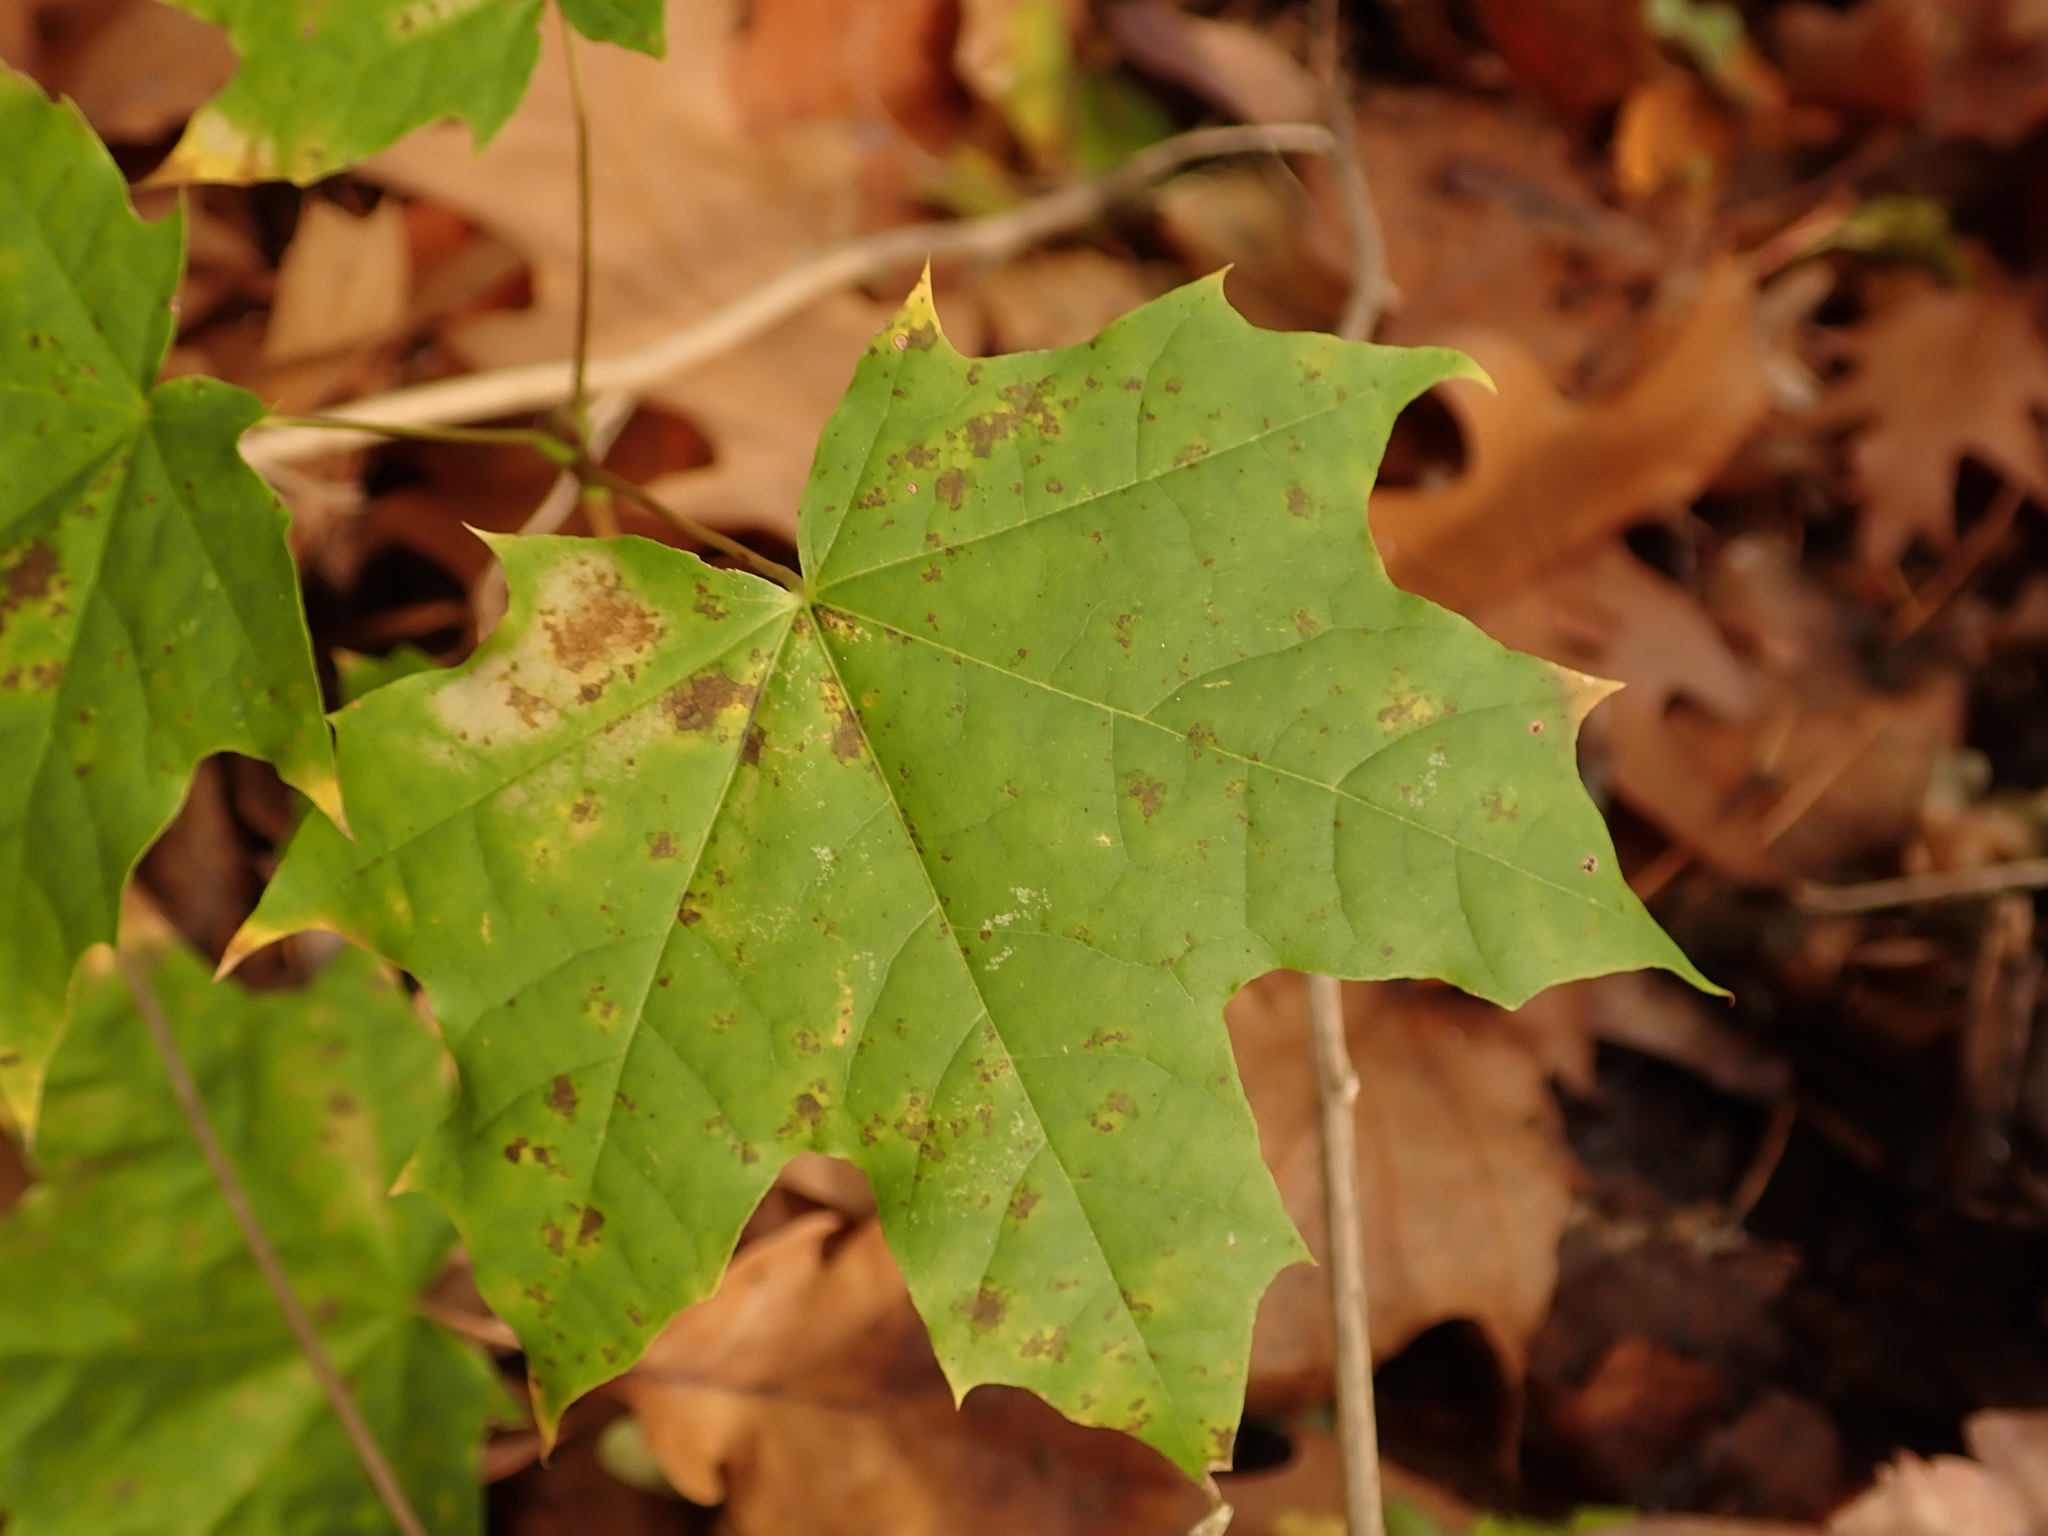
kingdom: Plantae
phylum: Tracheophyta
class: Magnoliopsida
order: Sapindales
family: Sapindaceae
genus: Acer
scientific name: Acer platanoides
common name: Norway maple
